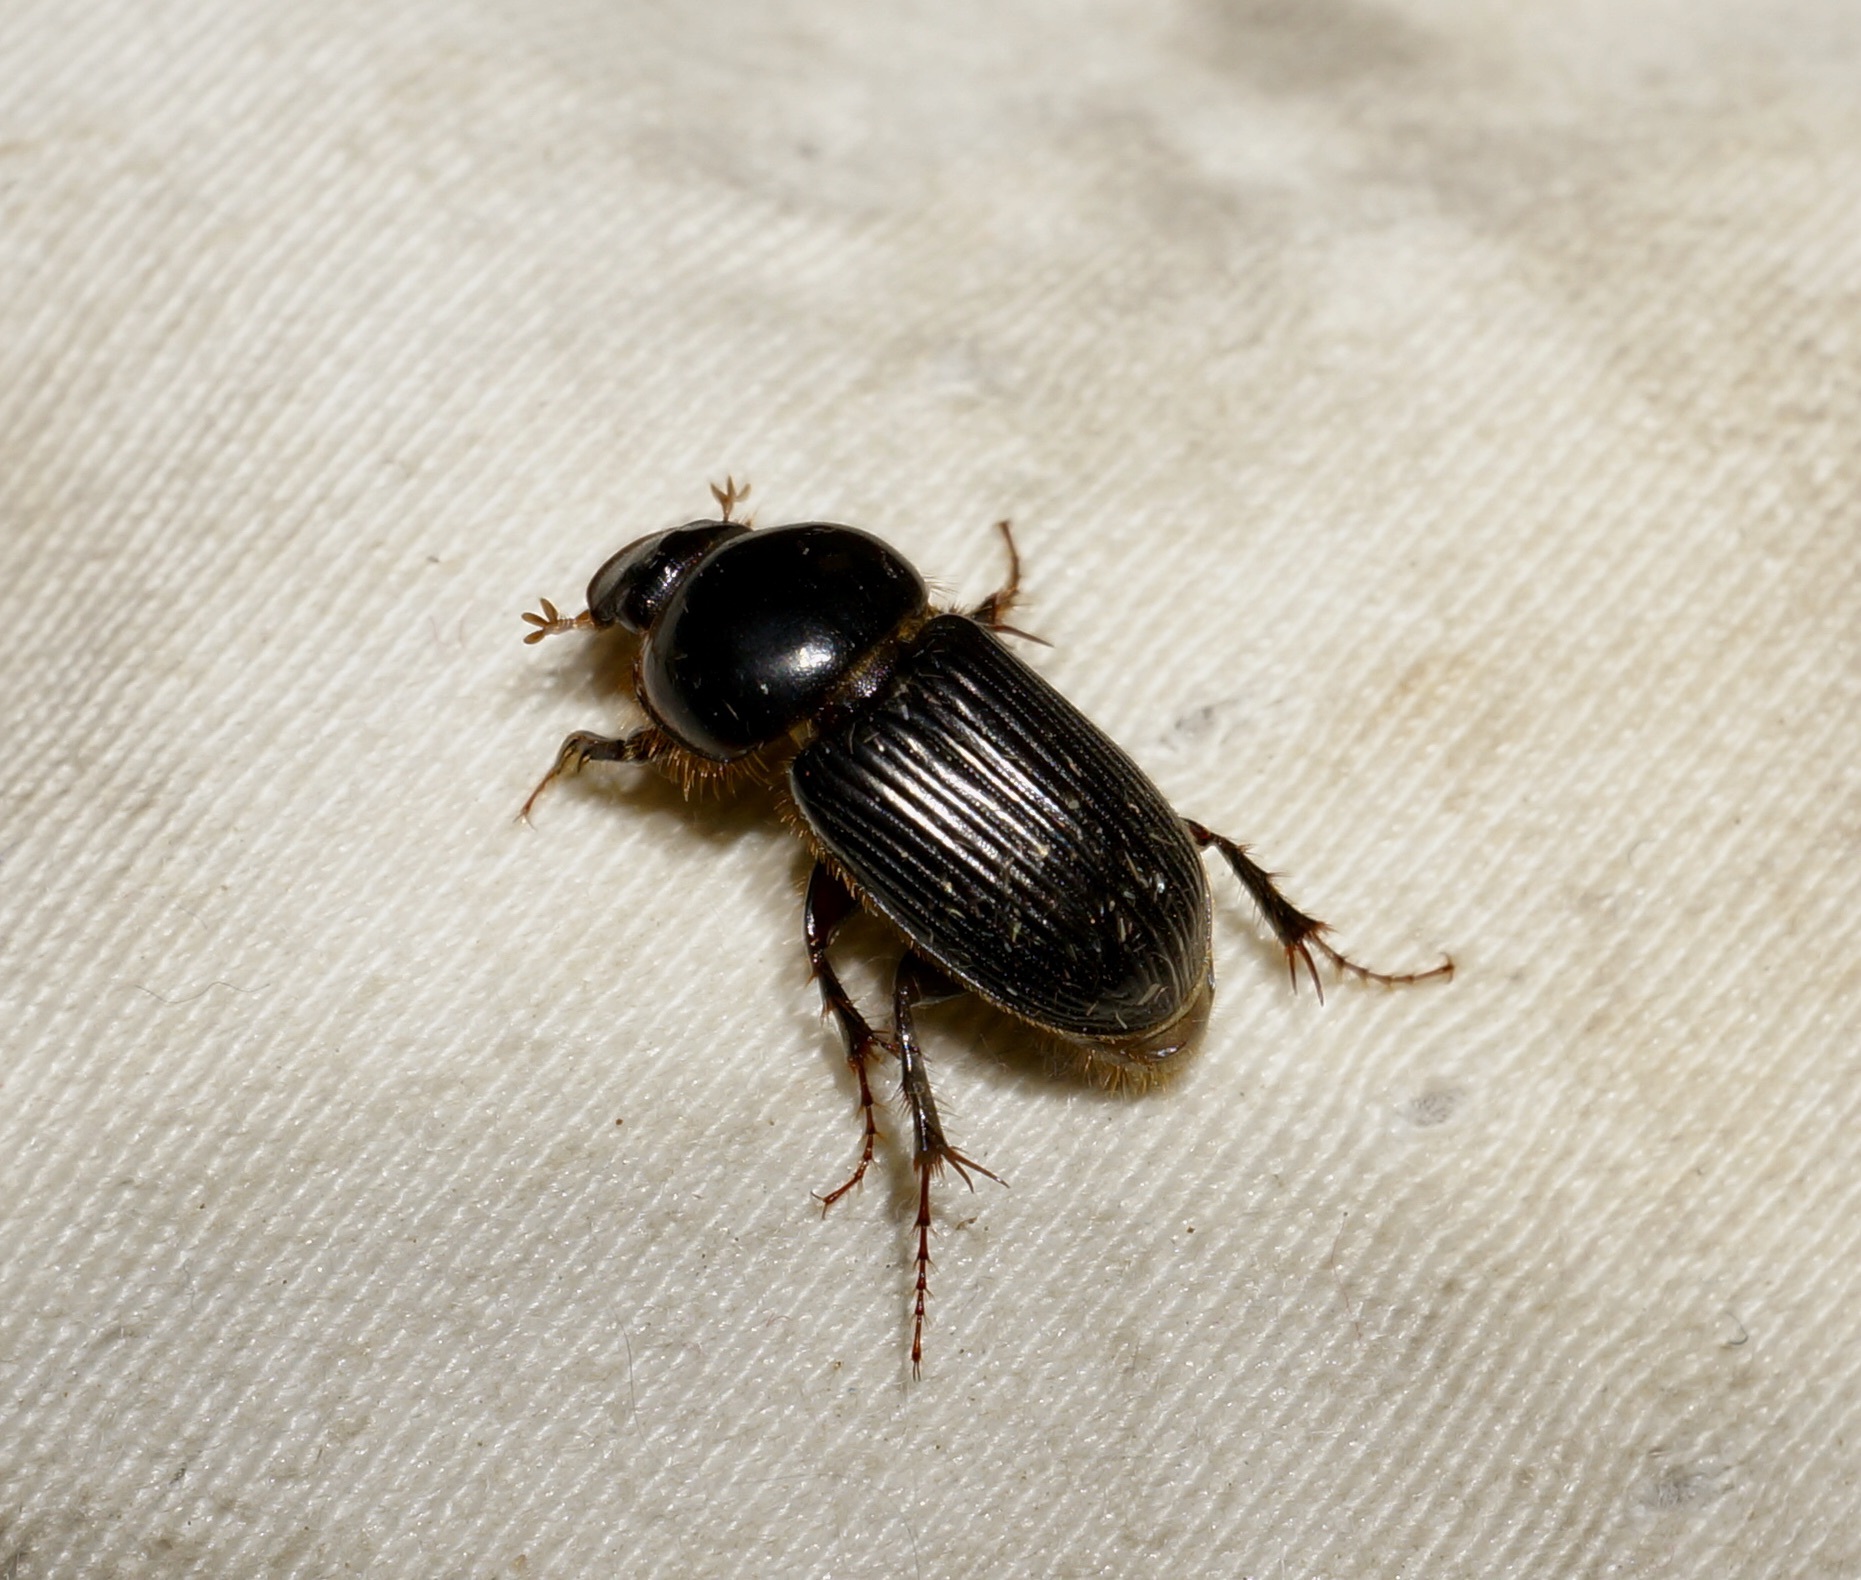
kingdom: Animalia
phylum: Arthropoda
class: Insecta
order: Coleoptera
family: Scarabaeidae
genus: Acrossidius
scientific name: Acrossidius tasmaniae
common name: Black-headed pasture cockchafer
